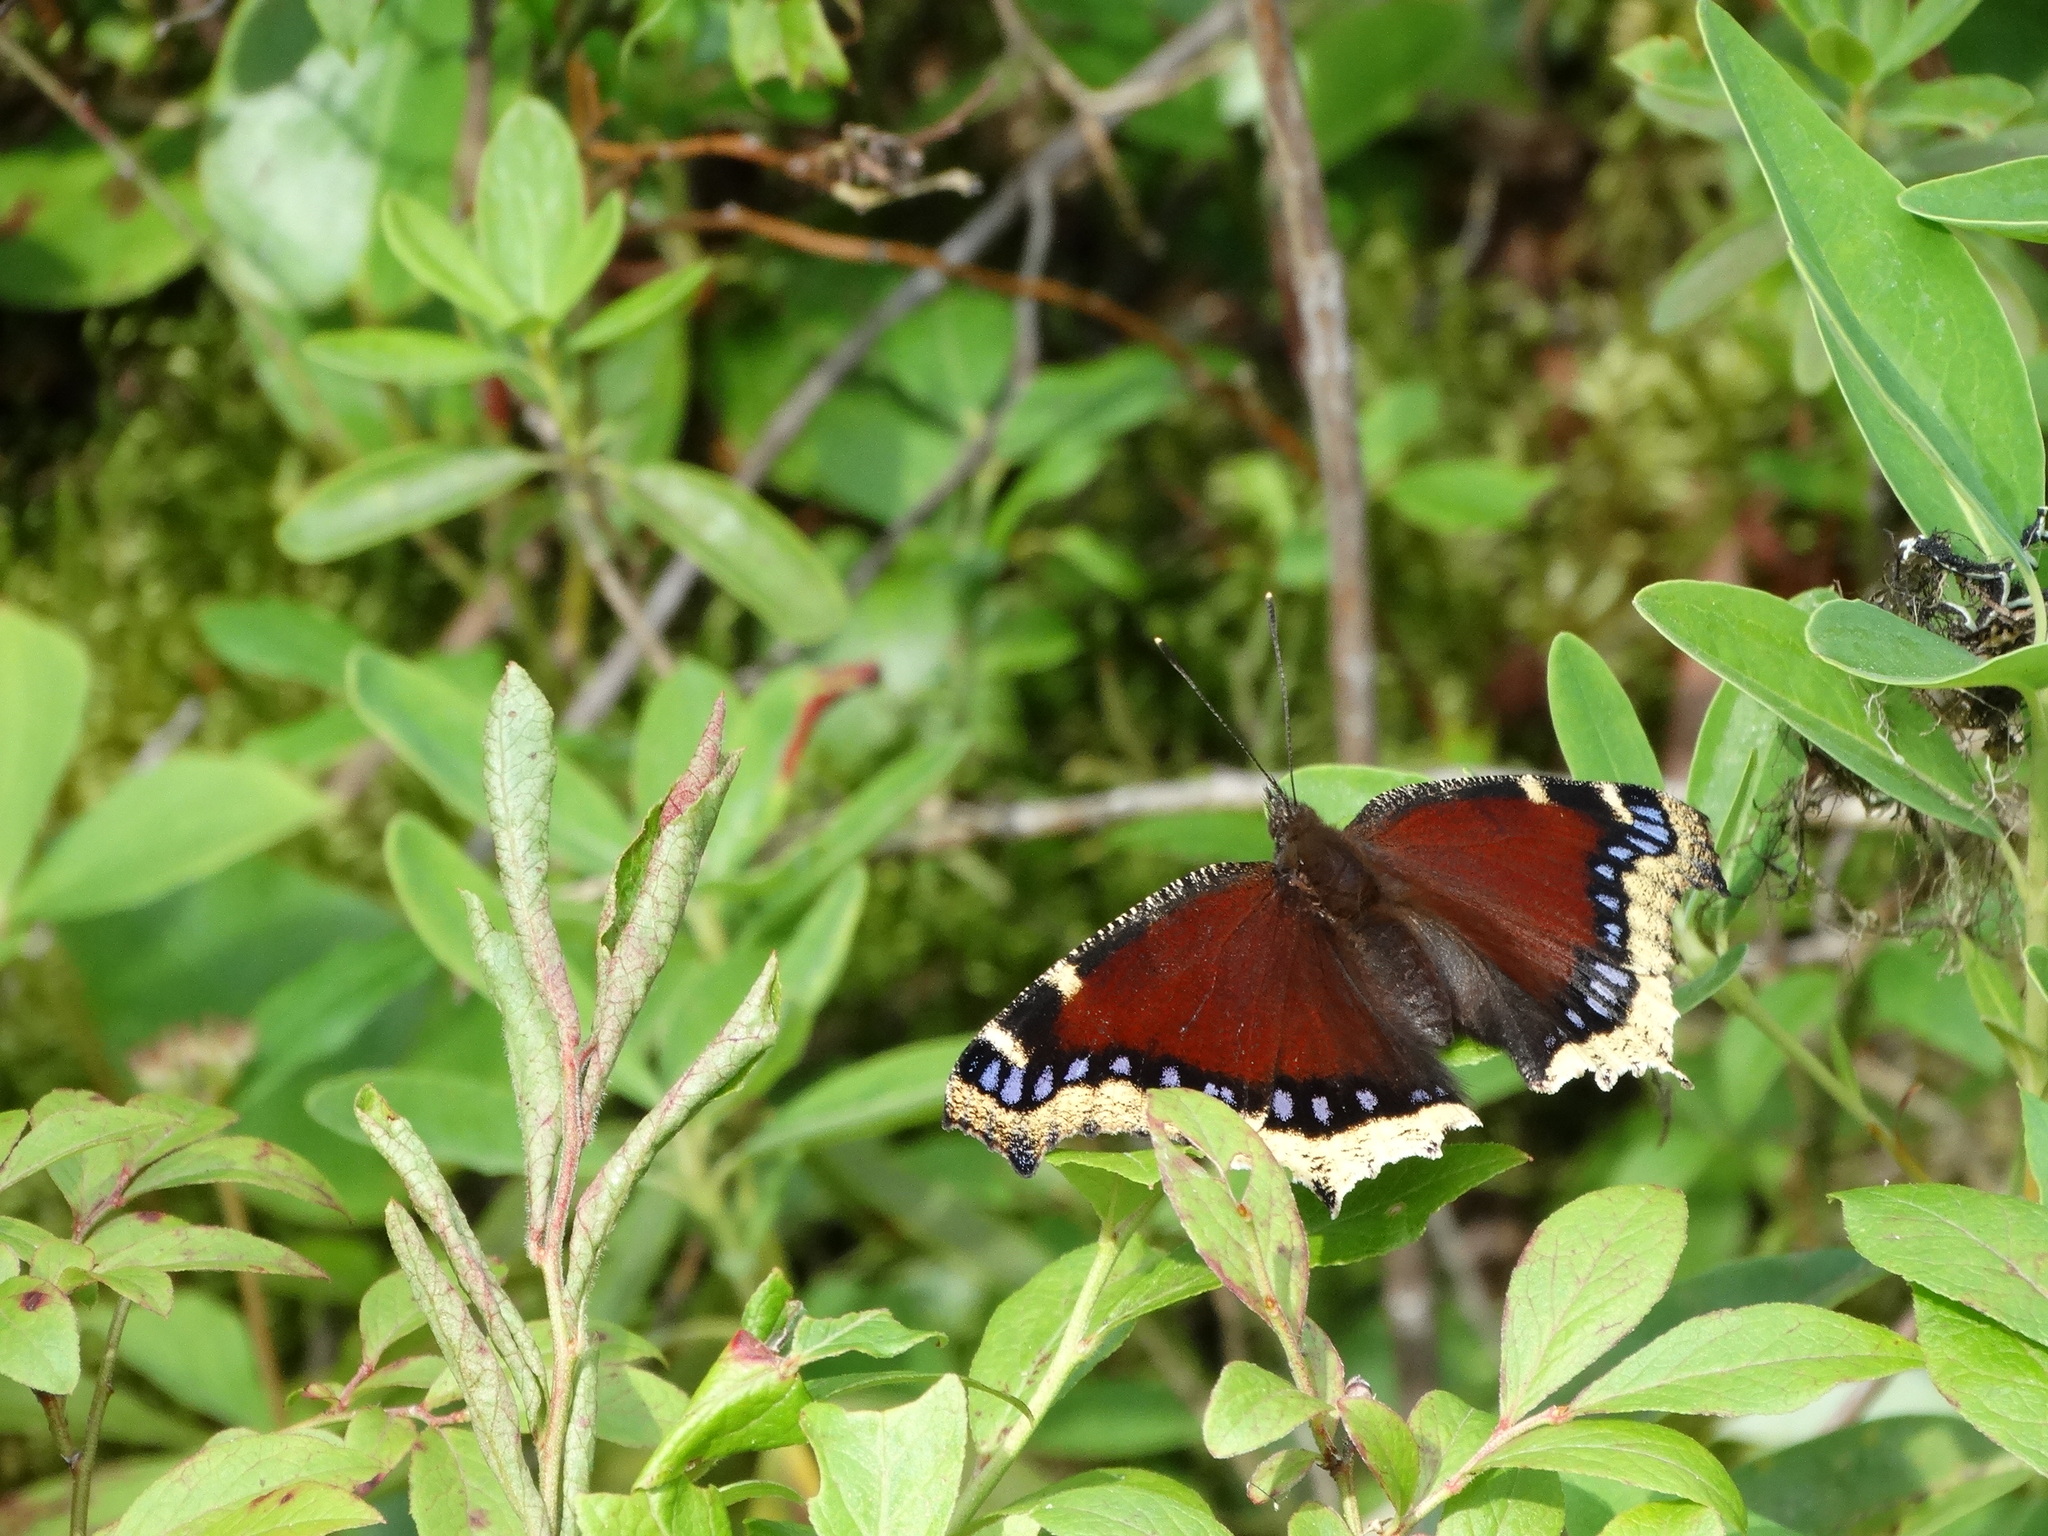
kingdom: Animalia
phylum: Arthropoda
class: Insecta
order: Lepidoptera
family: Nymphalidae
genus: Nymphalis
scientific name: Nymphalis antiopa
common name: Camberwell beauty
